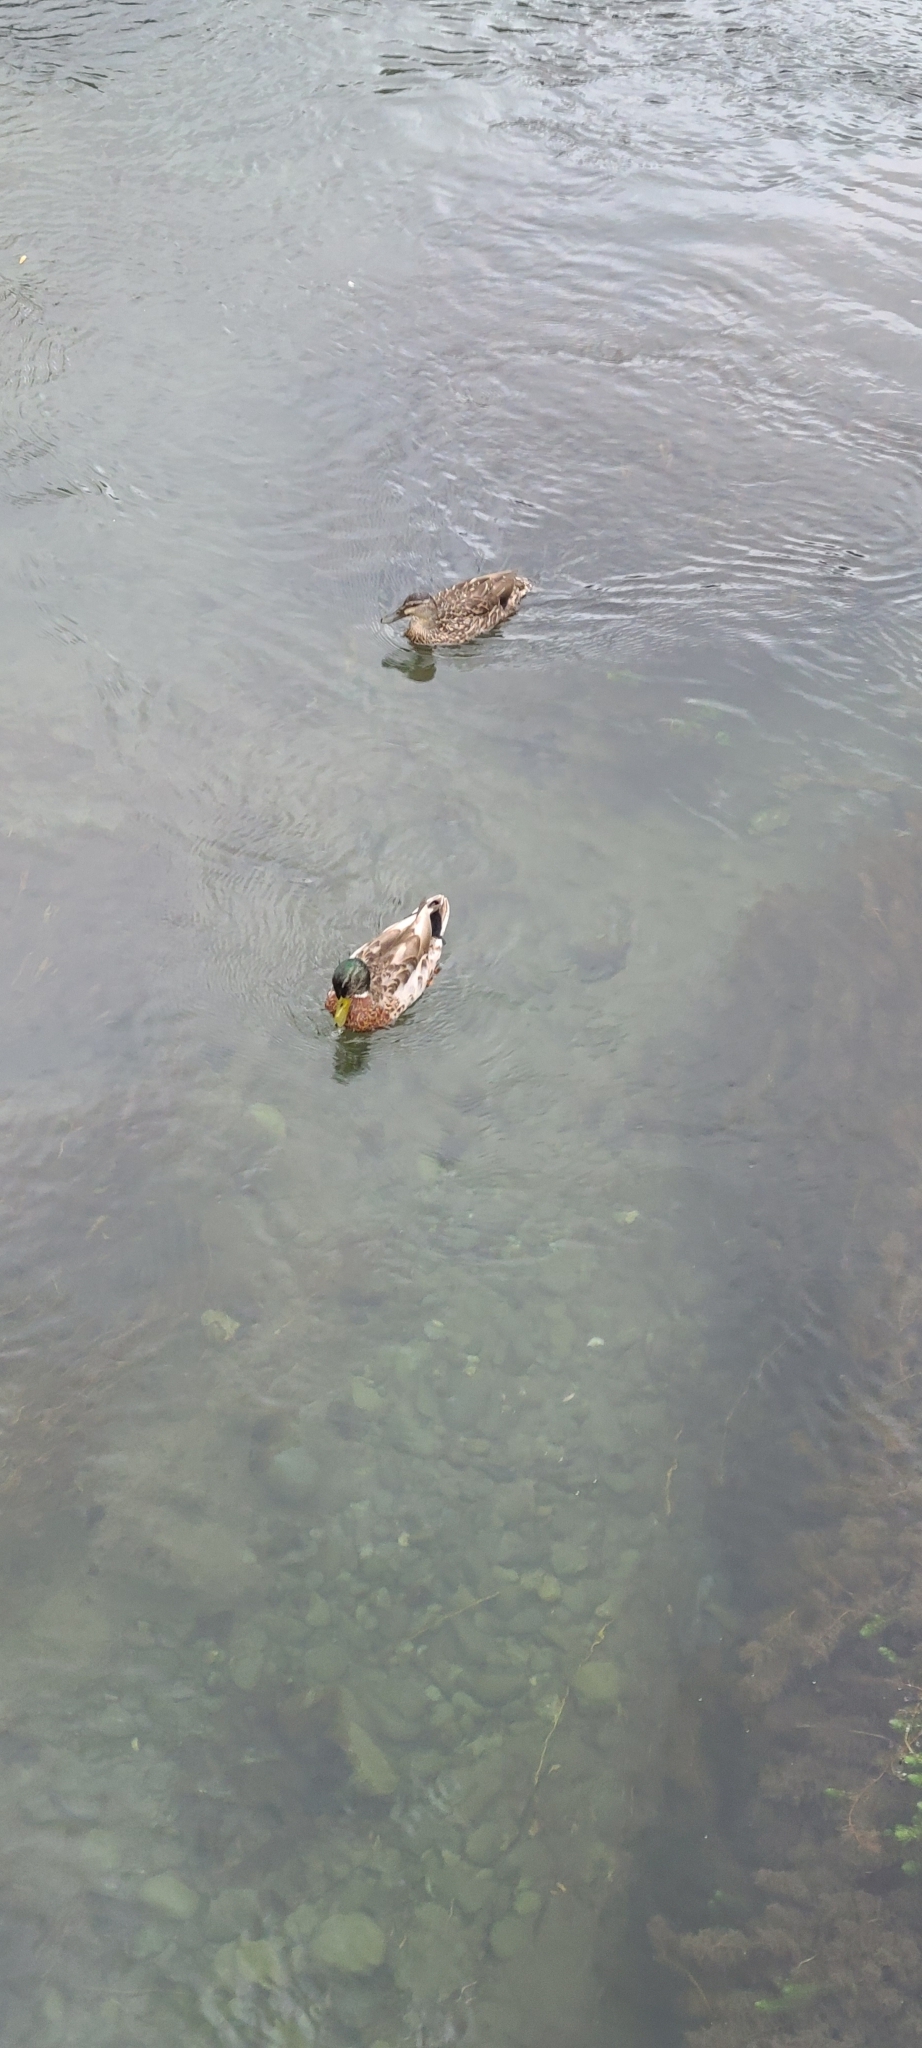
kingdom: Animalia
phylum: Chordata
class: Aves
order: Anseriformes
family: Anatidae
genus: Anas
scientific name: Anas platyrhynchos
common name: Mallard
